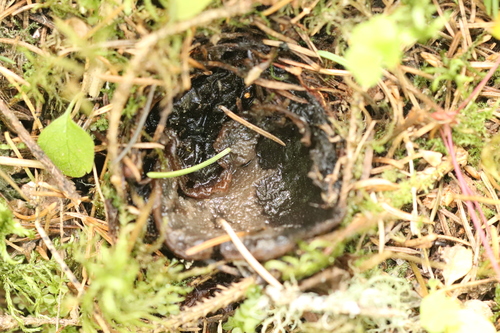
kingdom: Fungi
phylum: Ascomycota
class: Pezizomycetes
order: Pezizales
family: Sarcosomataceae
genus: Sarcosoma
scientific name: Sarcosoma globosum
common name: Charred-pancake cup
